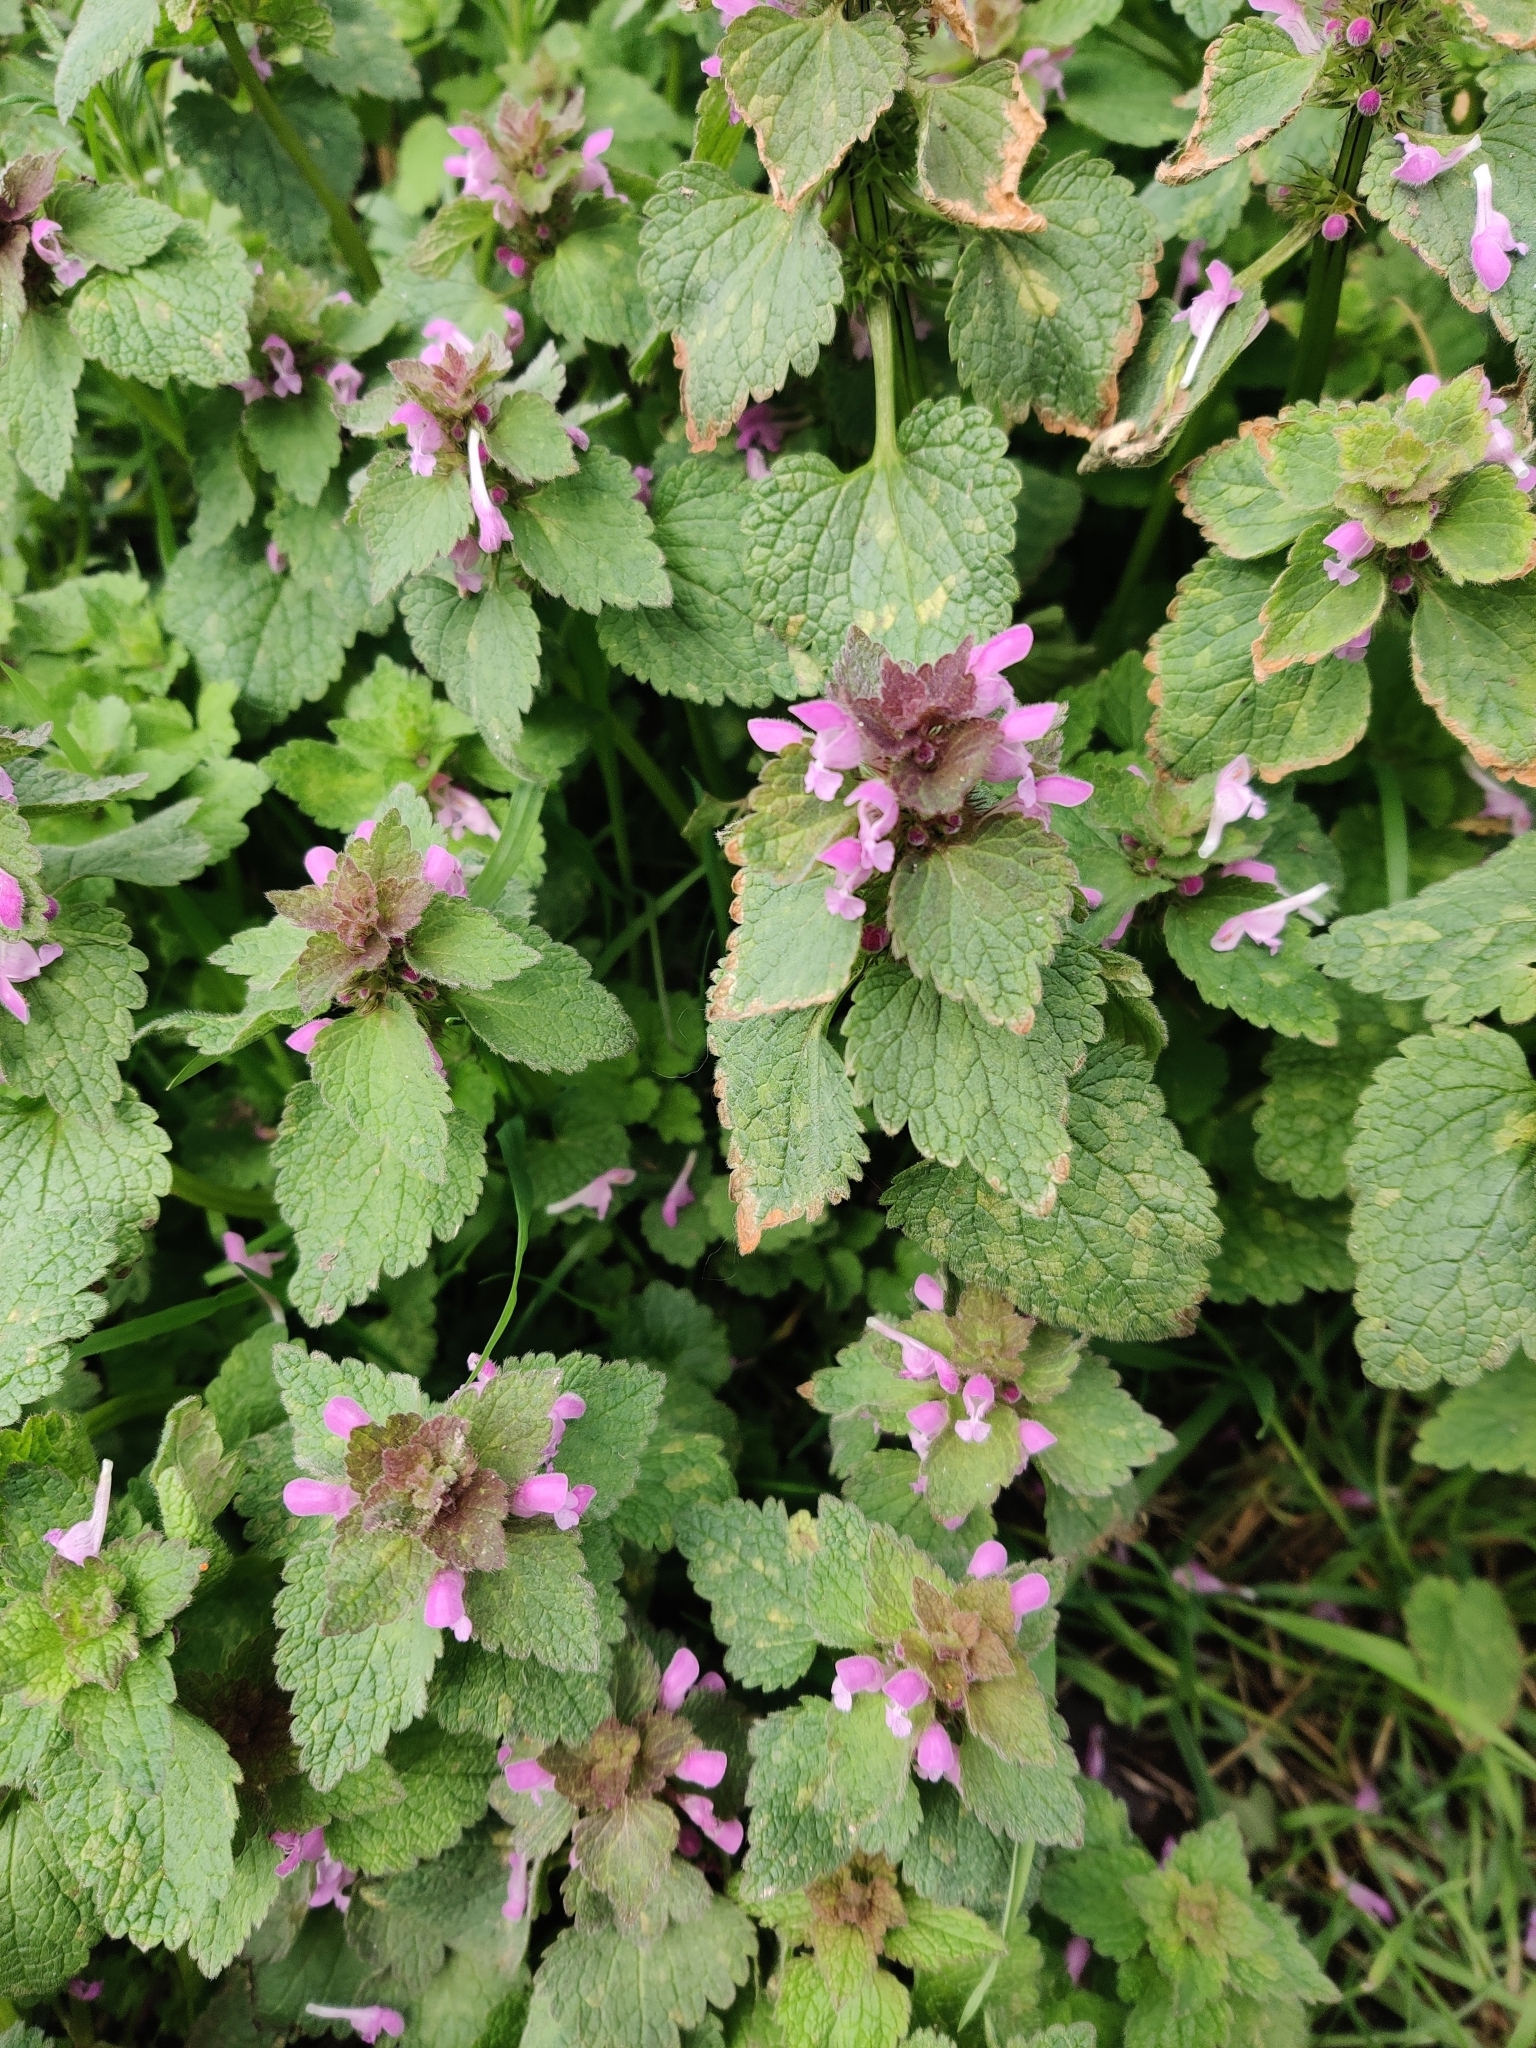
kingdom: Plantae
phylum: Tracheophyta
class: Magnoliopsida
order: Lamiales
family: Lamiaceae
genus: Lamium
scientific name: Lamium purpureum
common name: Red dead-nettle
